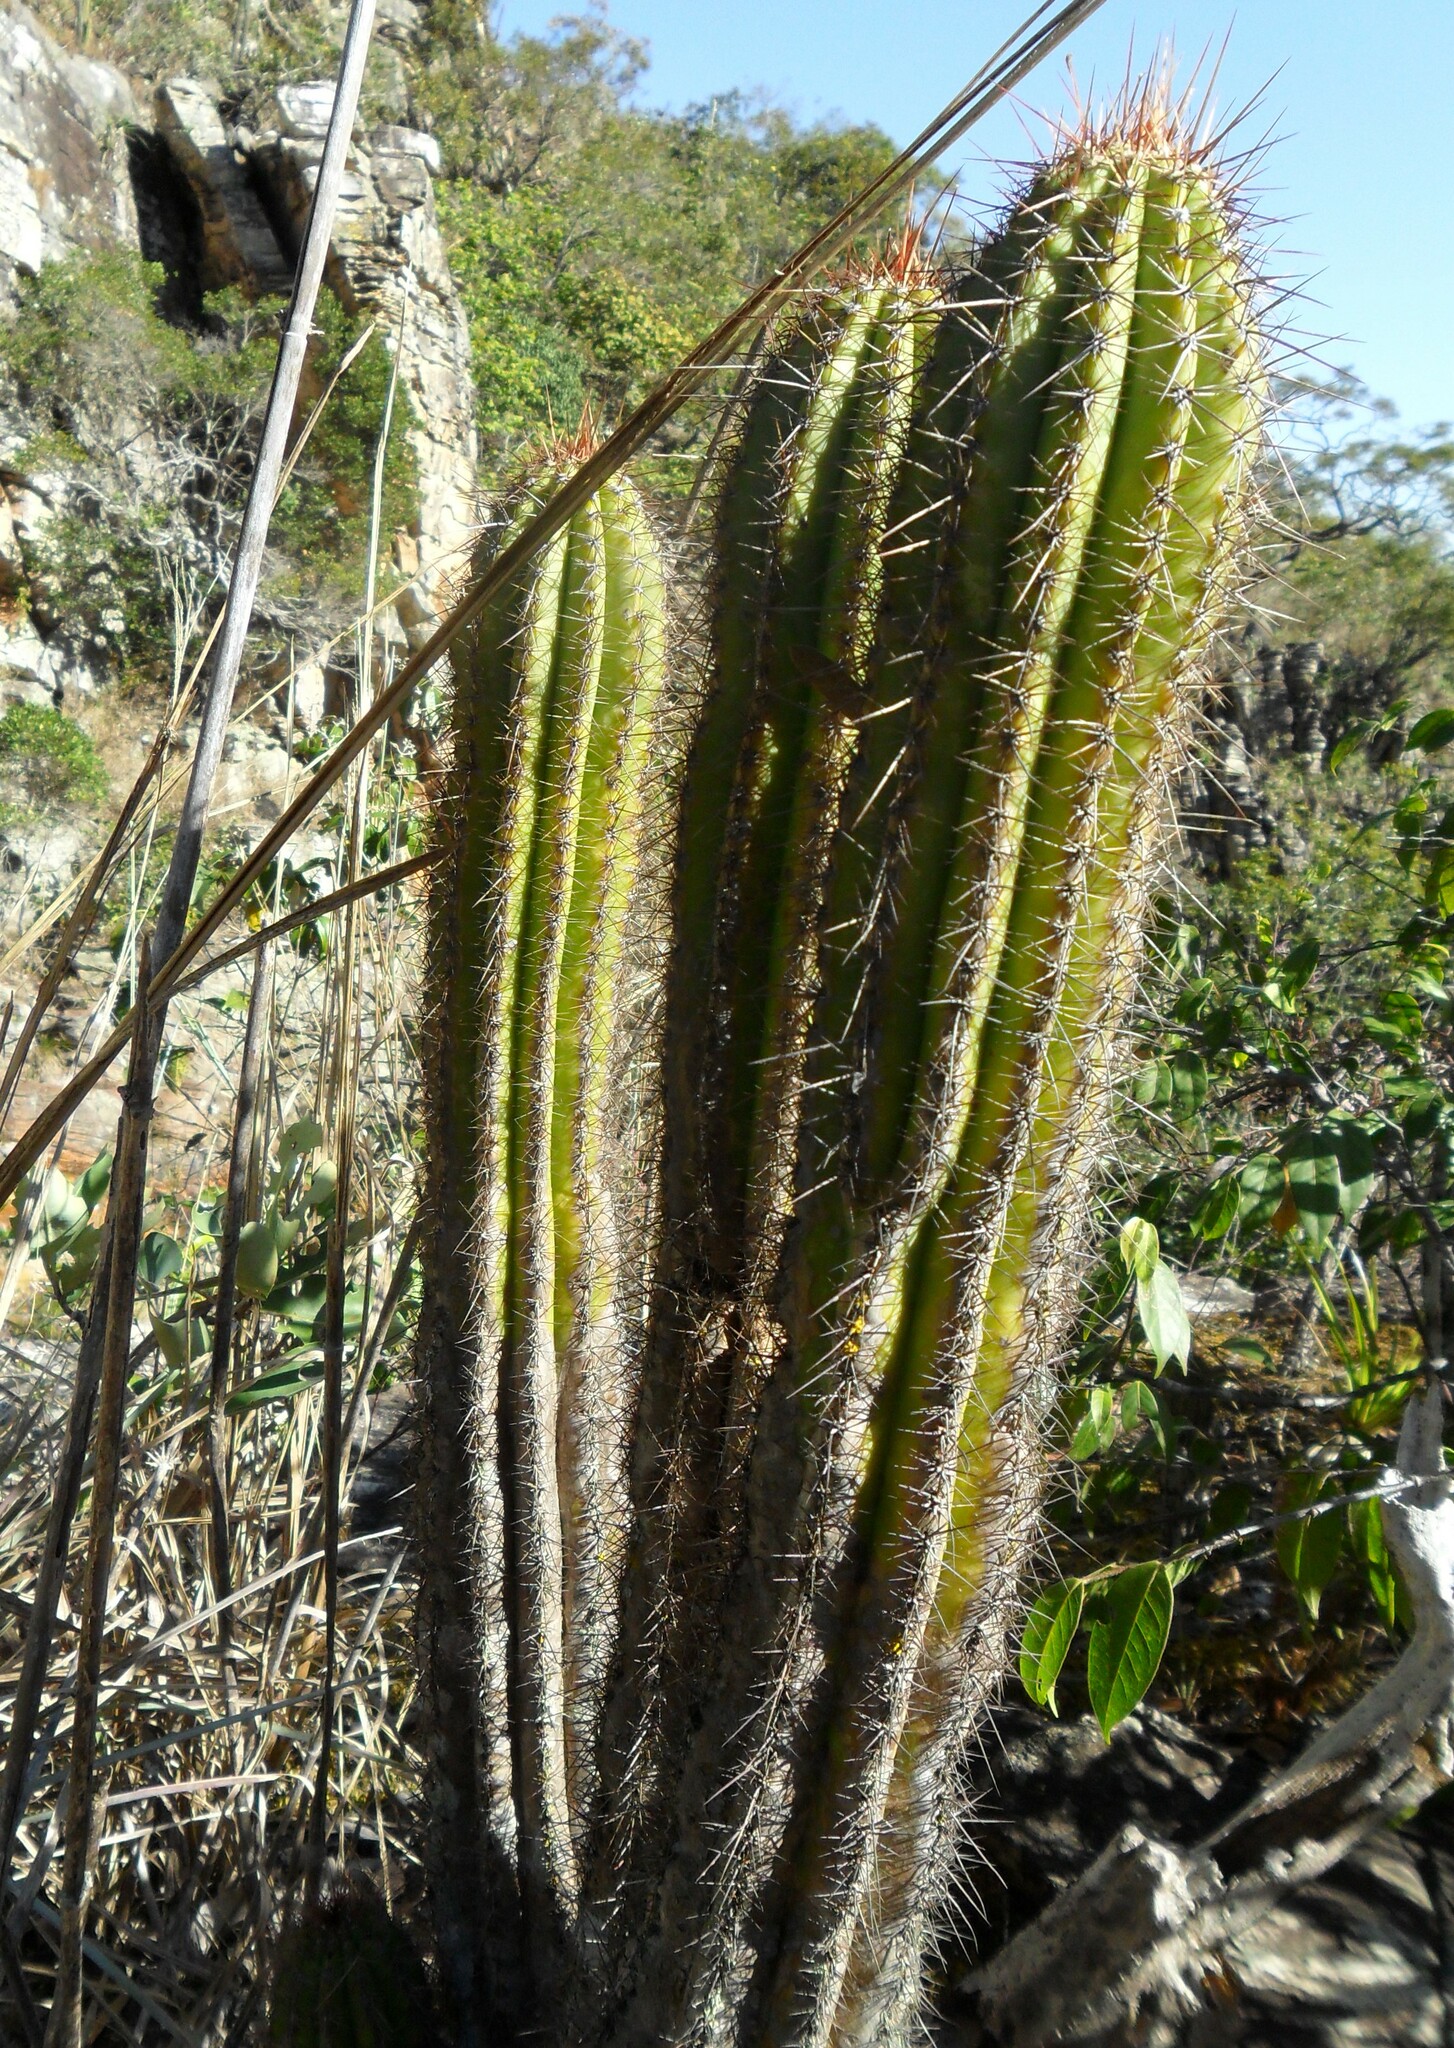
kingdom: Plantae
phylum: Tracheophyta
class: Magnoliopsida
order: Caryophyllales
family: Cactaceae
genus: Pilosocereus
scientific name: Pilosocereus machrisii
